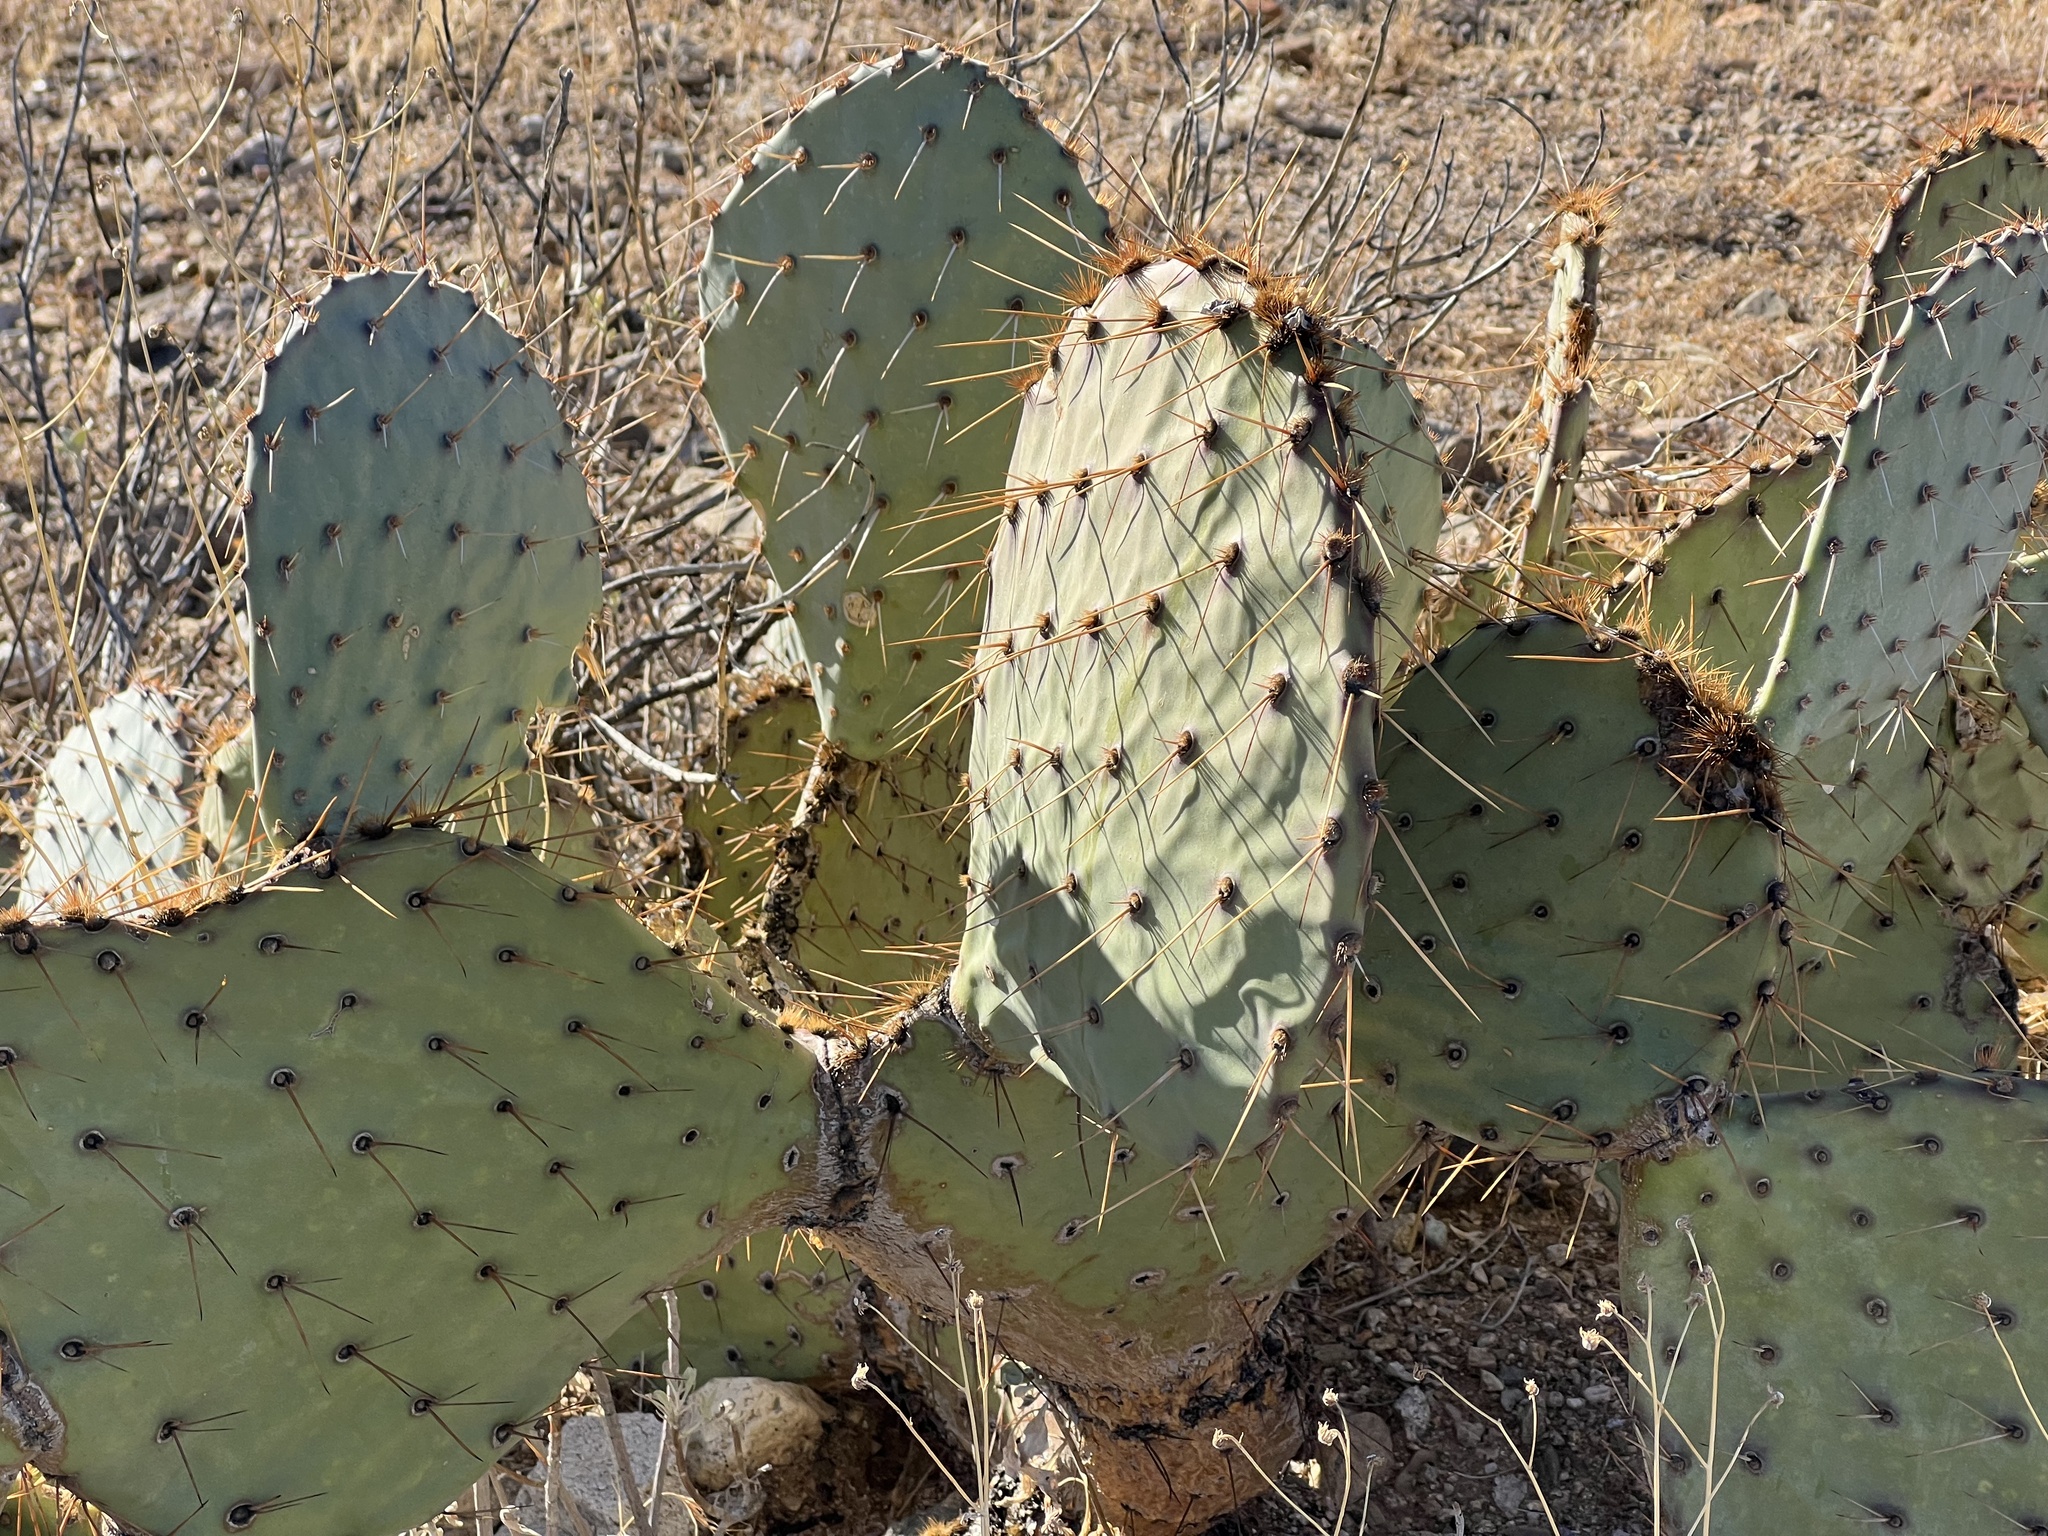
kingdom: Plantae
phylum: Tracheophyta
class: Magnoliopsida
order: Caryophyllales
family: Cactaceae
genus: Opuntia
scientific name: Opuntia engelmannii
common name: Cactus-apple
